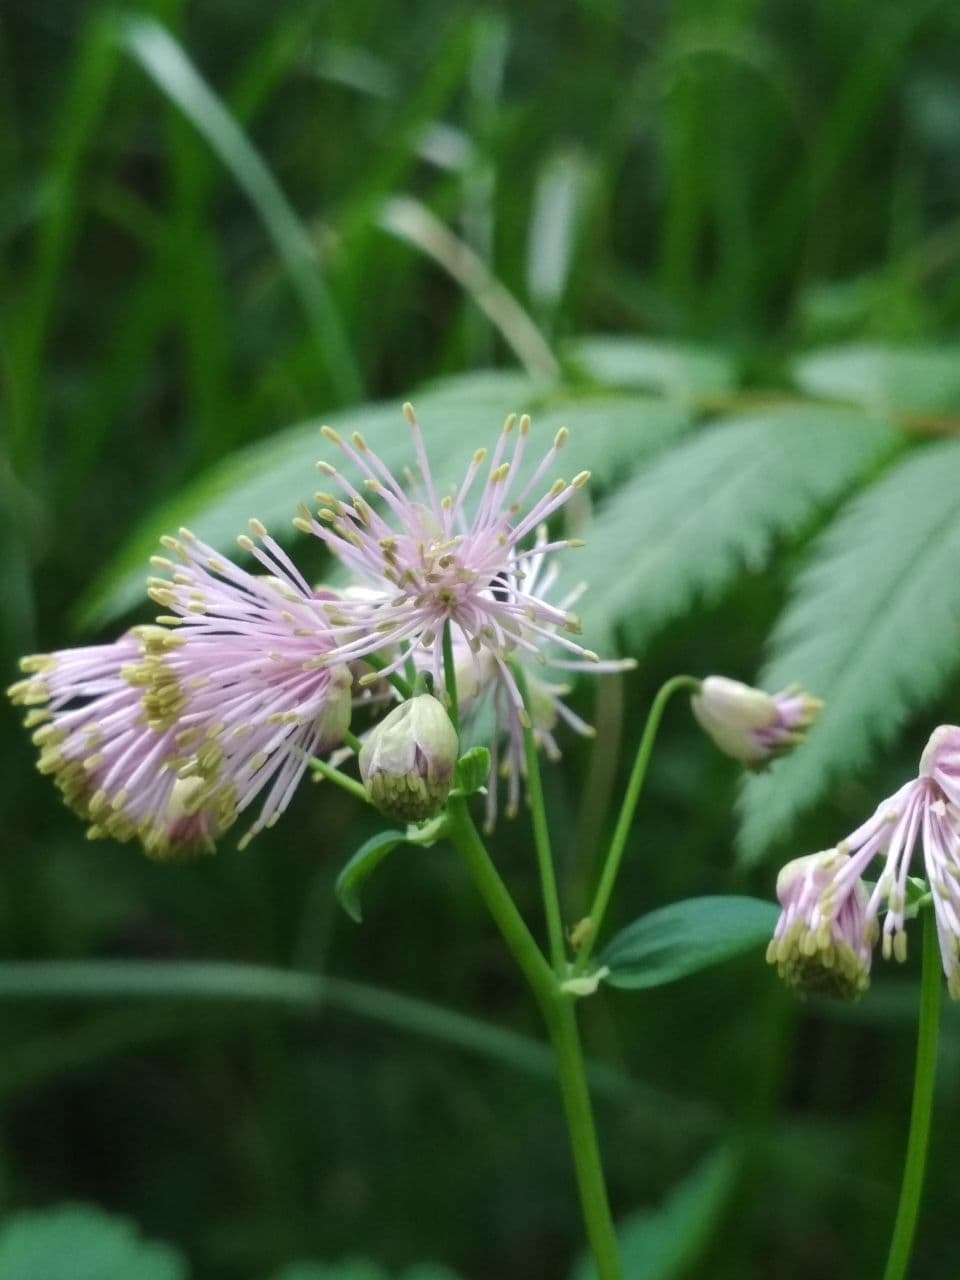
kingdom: Plantae
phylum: Tracheophyta
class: Magnoliopsida
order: Ranunculales
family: Ranunculaceae
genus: Thalictrum
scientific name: Thalictrum aquilegiifolium
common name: French meadow-rue
